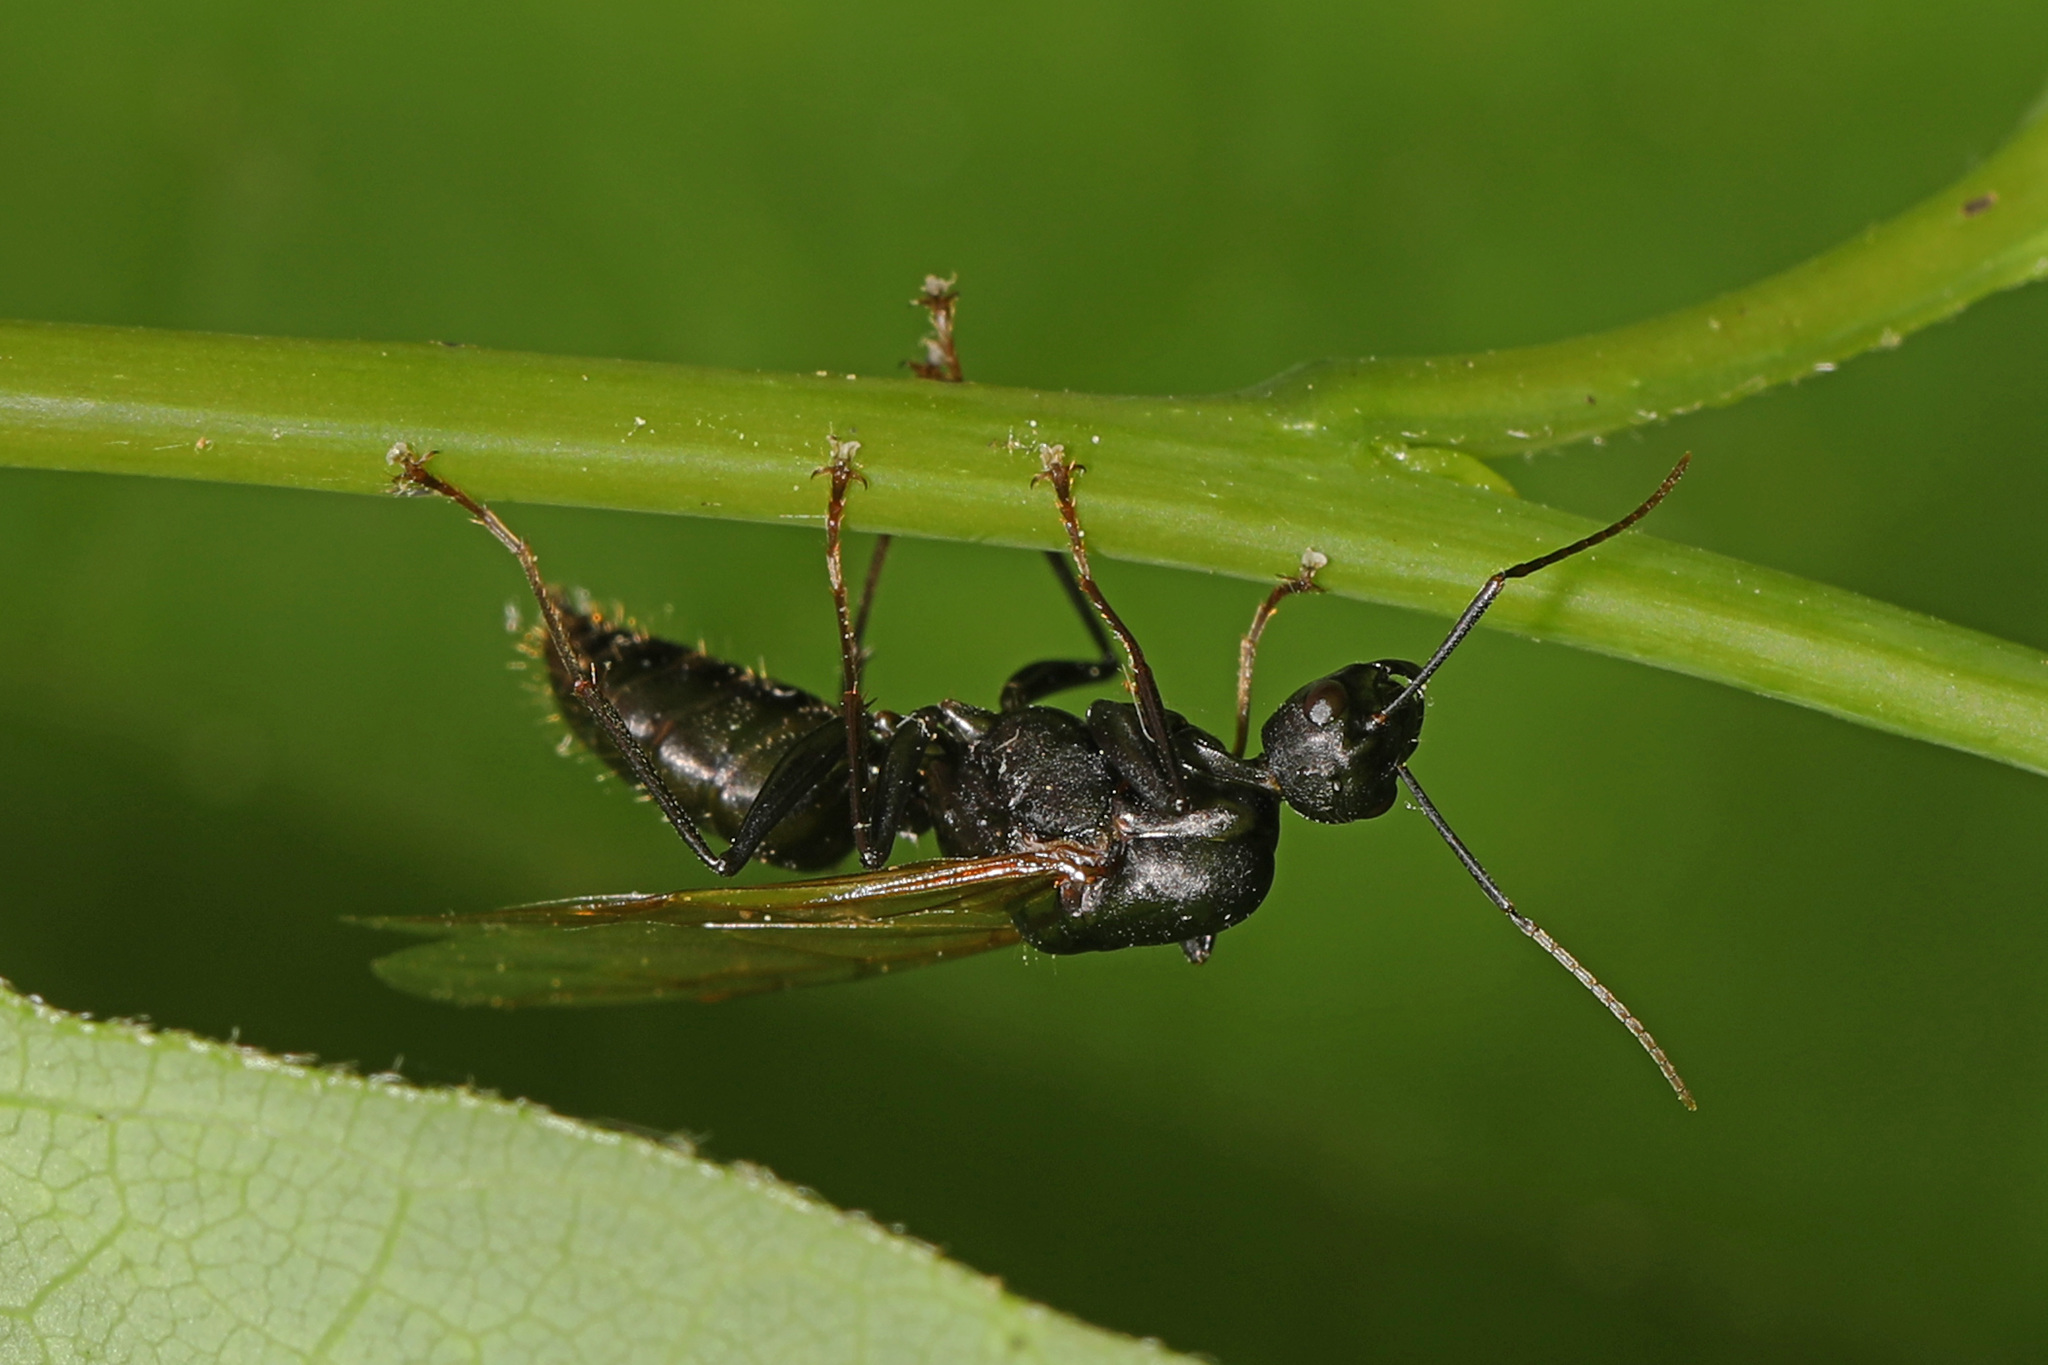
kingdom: Animalia
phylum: Arthropoda
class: Insecta
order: Hymenoptera
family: Formicidae
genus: Camponotus
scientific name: Camponotus pennsylvanicus
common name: Black carpenter ant
